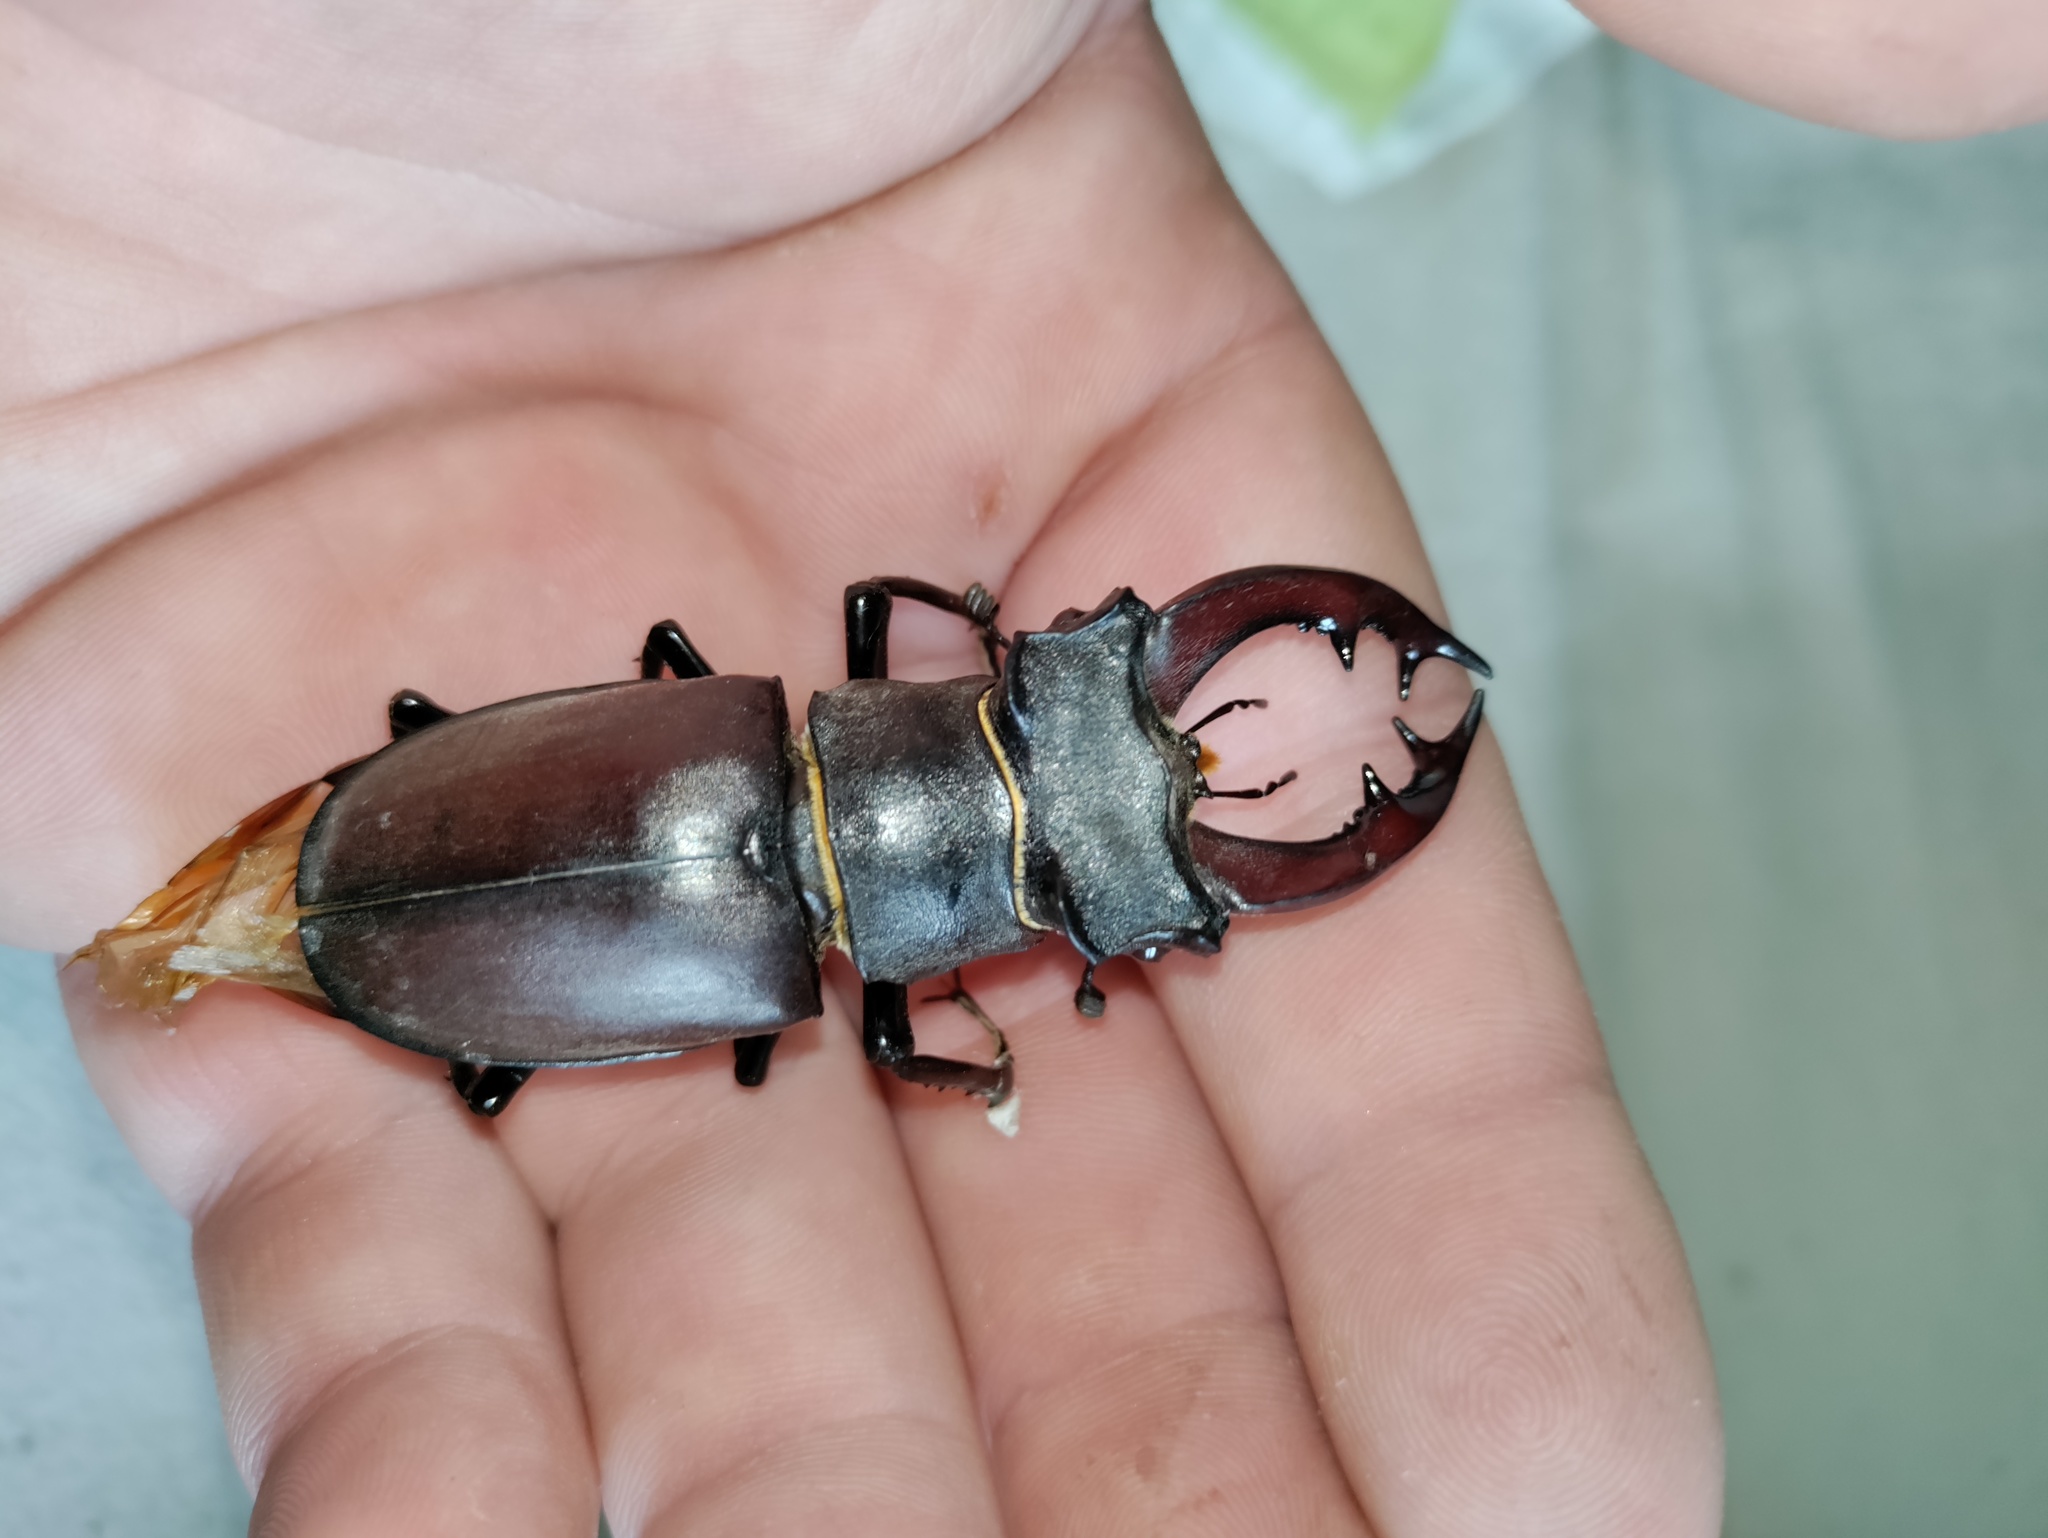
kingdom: Animalia
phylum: Arthropoda
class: Insecta
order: Coleoptera
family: Lucanidae
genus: Lucanus
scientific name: Lucanus cervus
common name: Stag beetle
